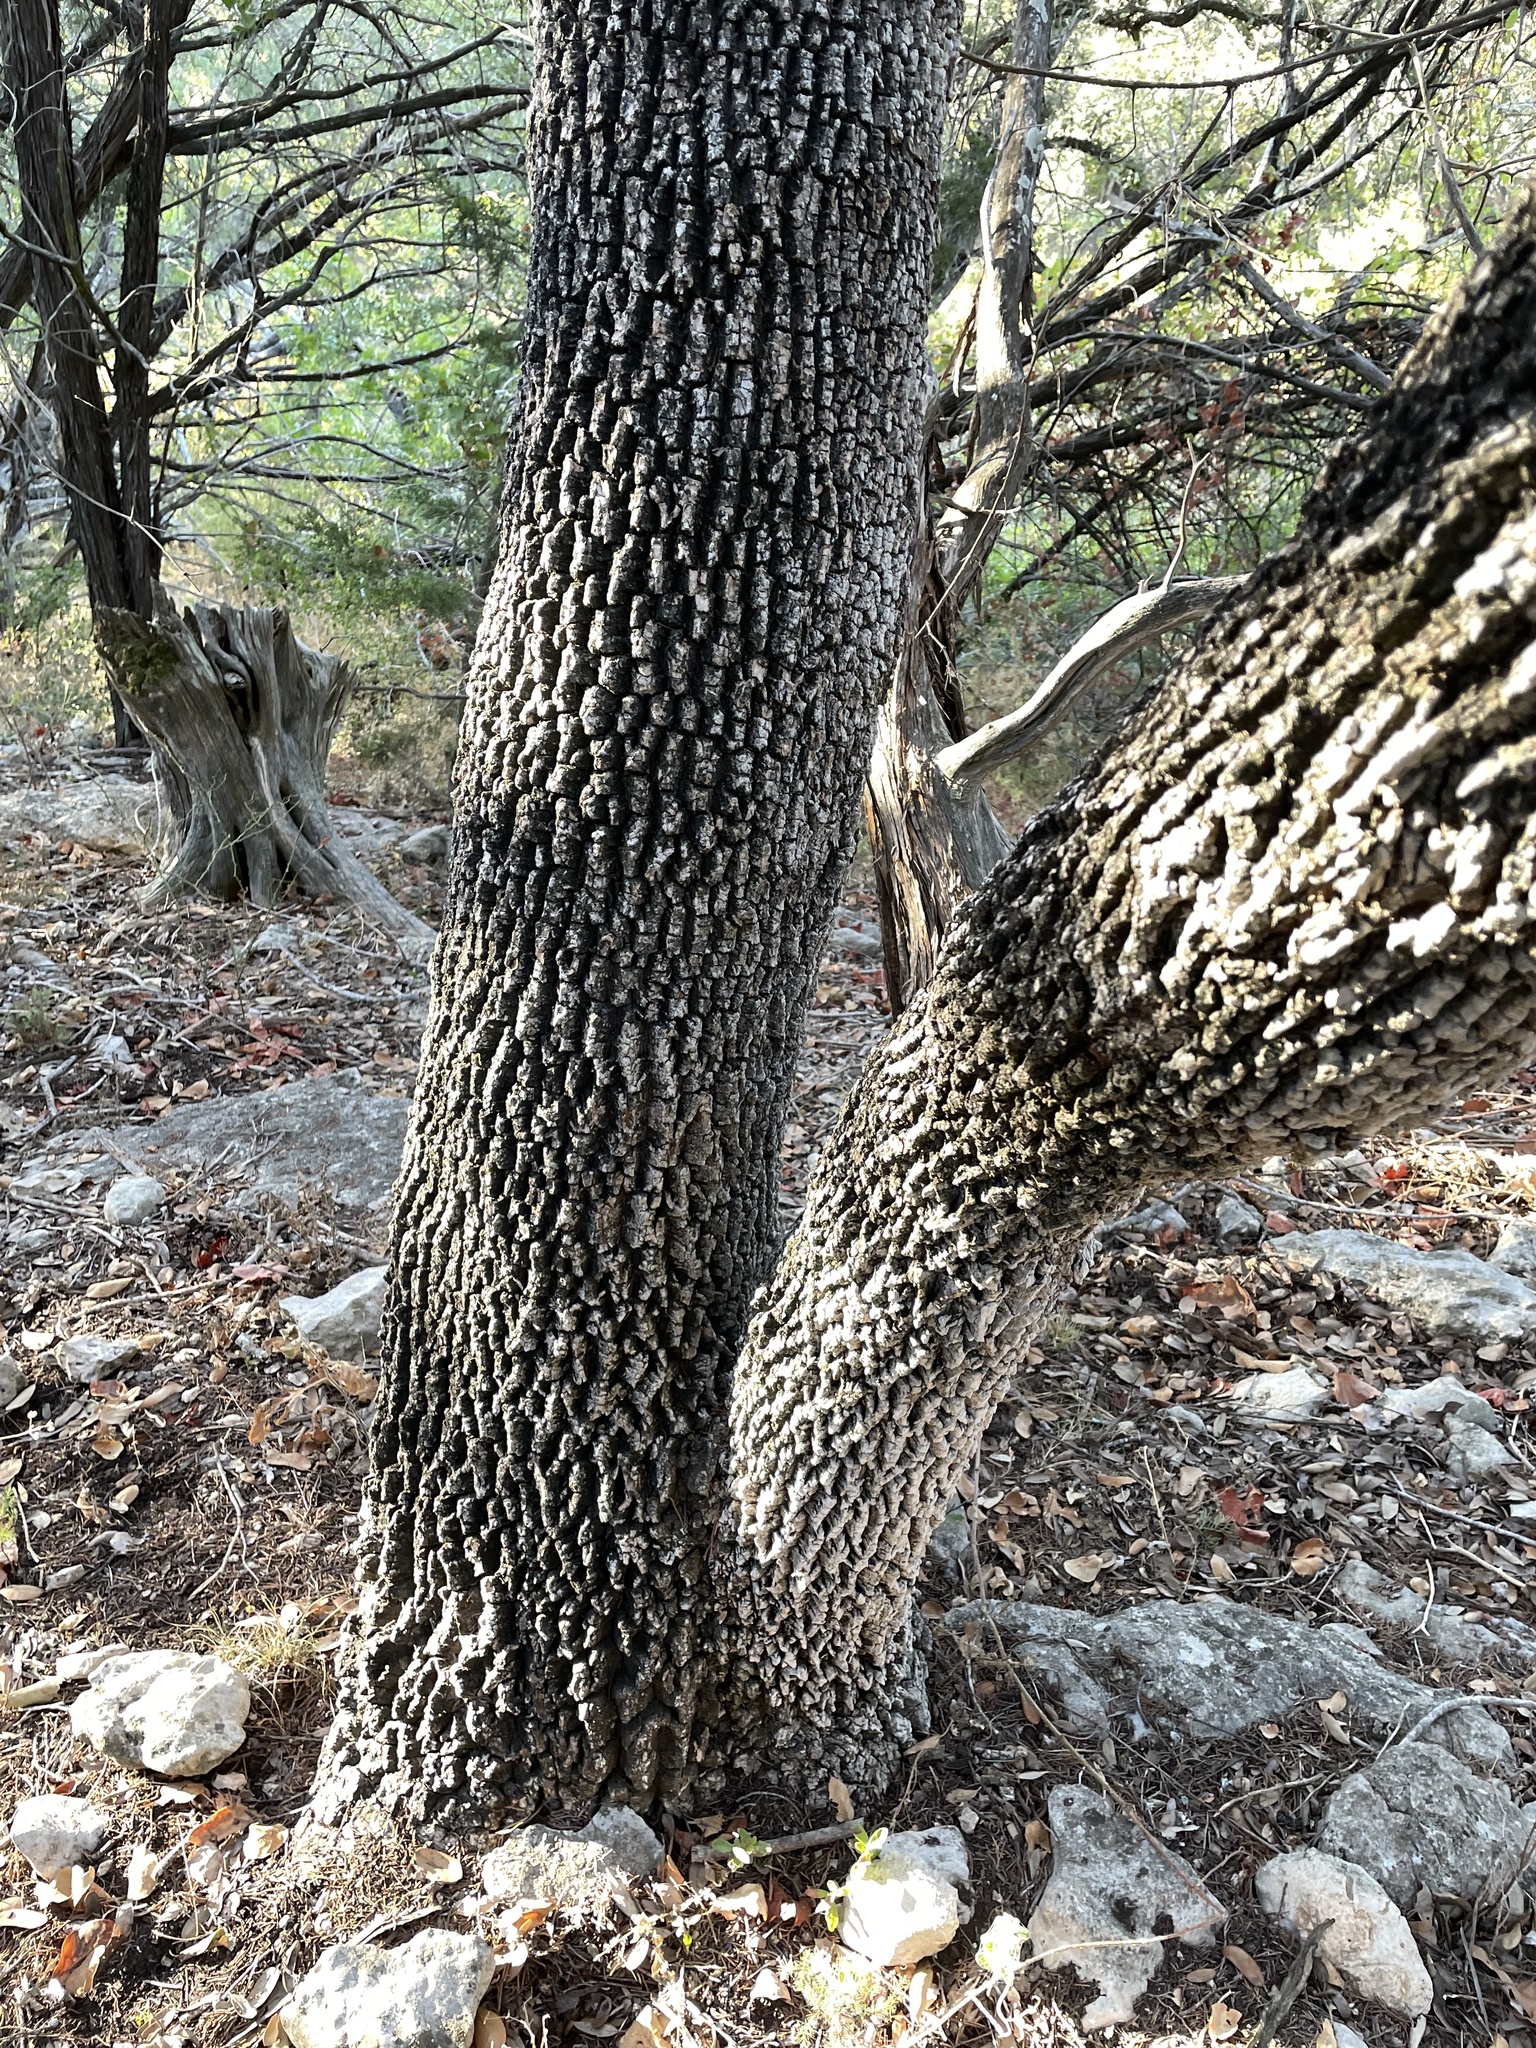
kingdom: Plantae
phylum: Tracheophyta
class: Magnoliopsida
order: Lamiales
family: Oleaceae
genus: Fraxinus
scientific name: Fraxinus albicans
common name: Texas ash
